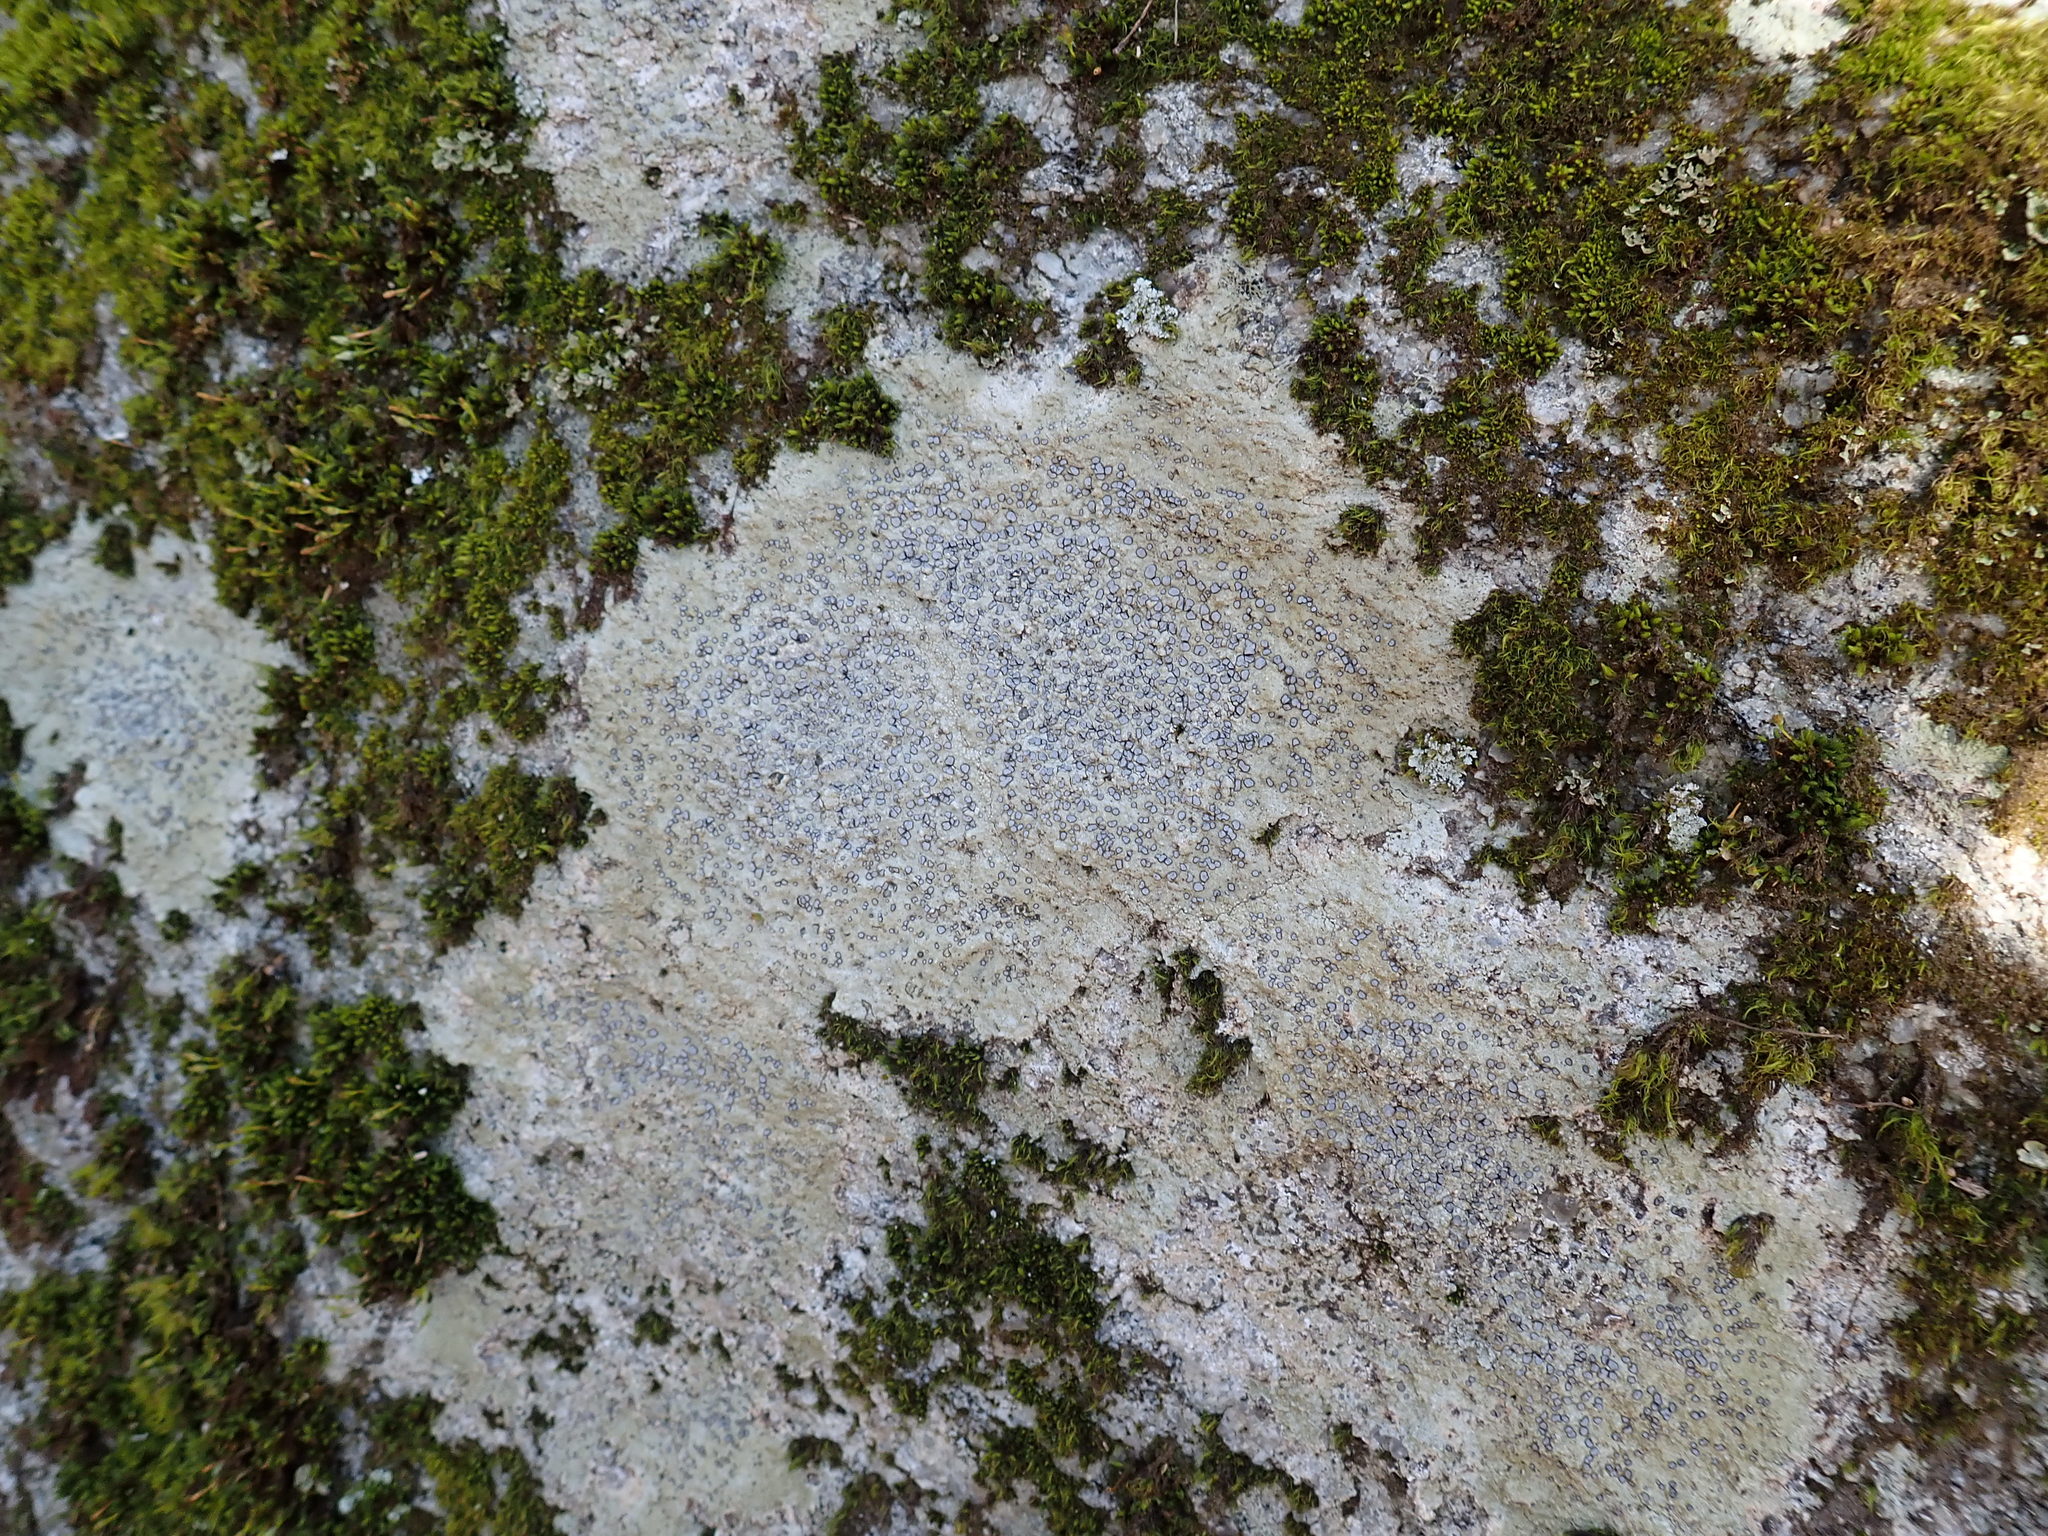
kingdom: Fungi
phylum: Ascomycota
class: Lecanoromycetes
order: Lecideales
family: Lecideaceae
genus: Porpidia
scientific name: Porpidia albocaerulescens
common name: Smokey-eyed boulder lichen
